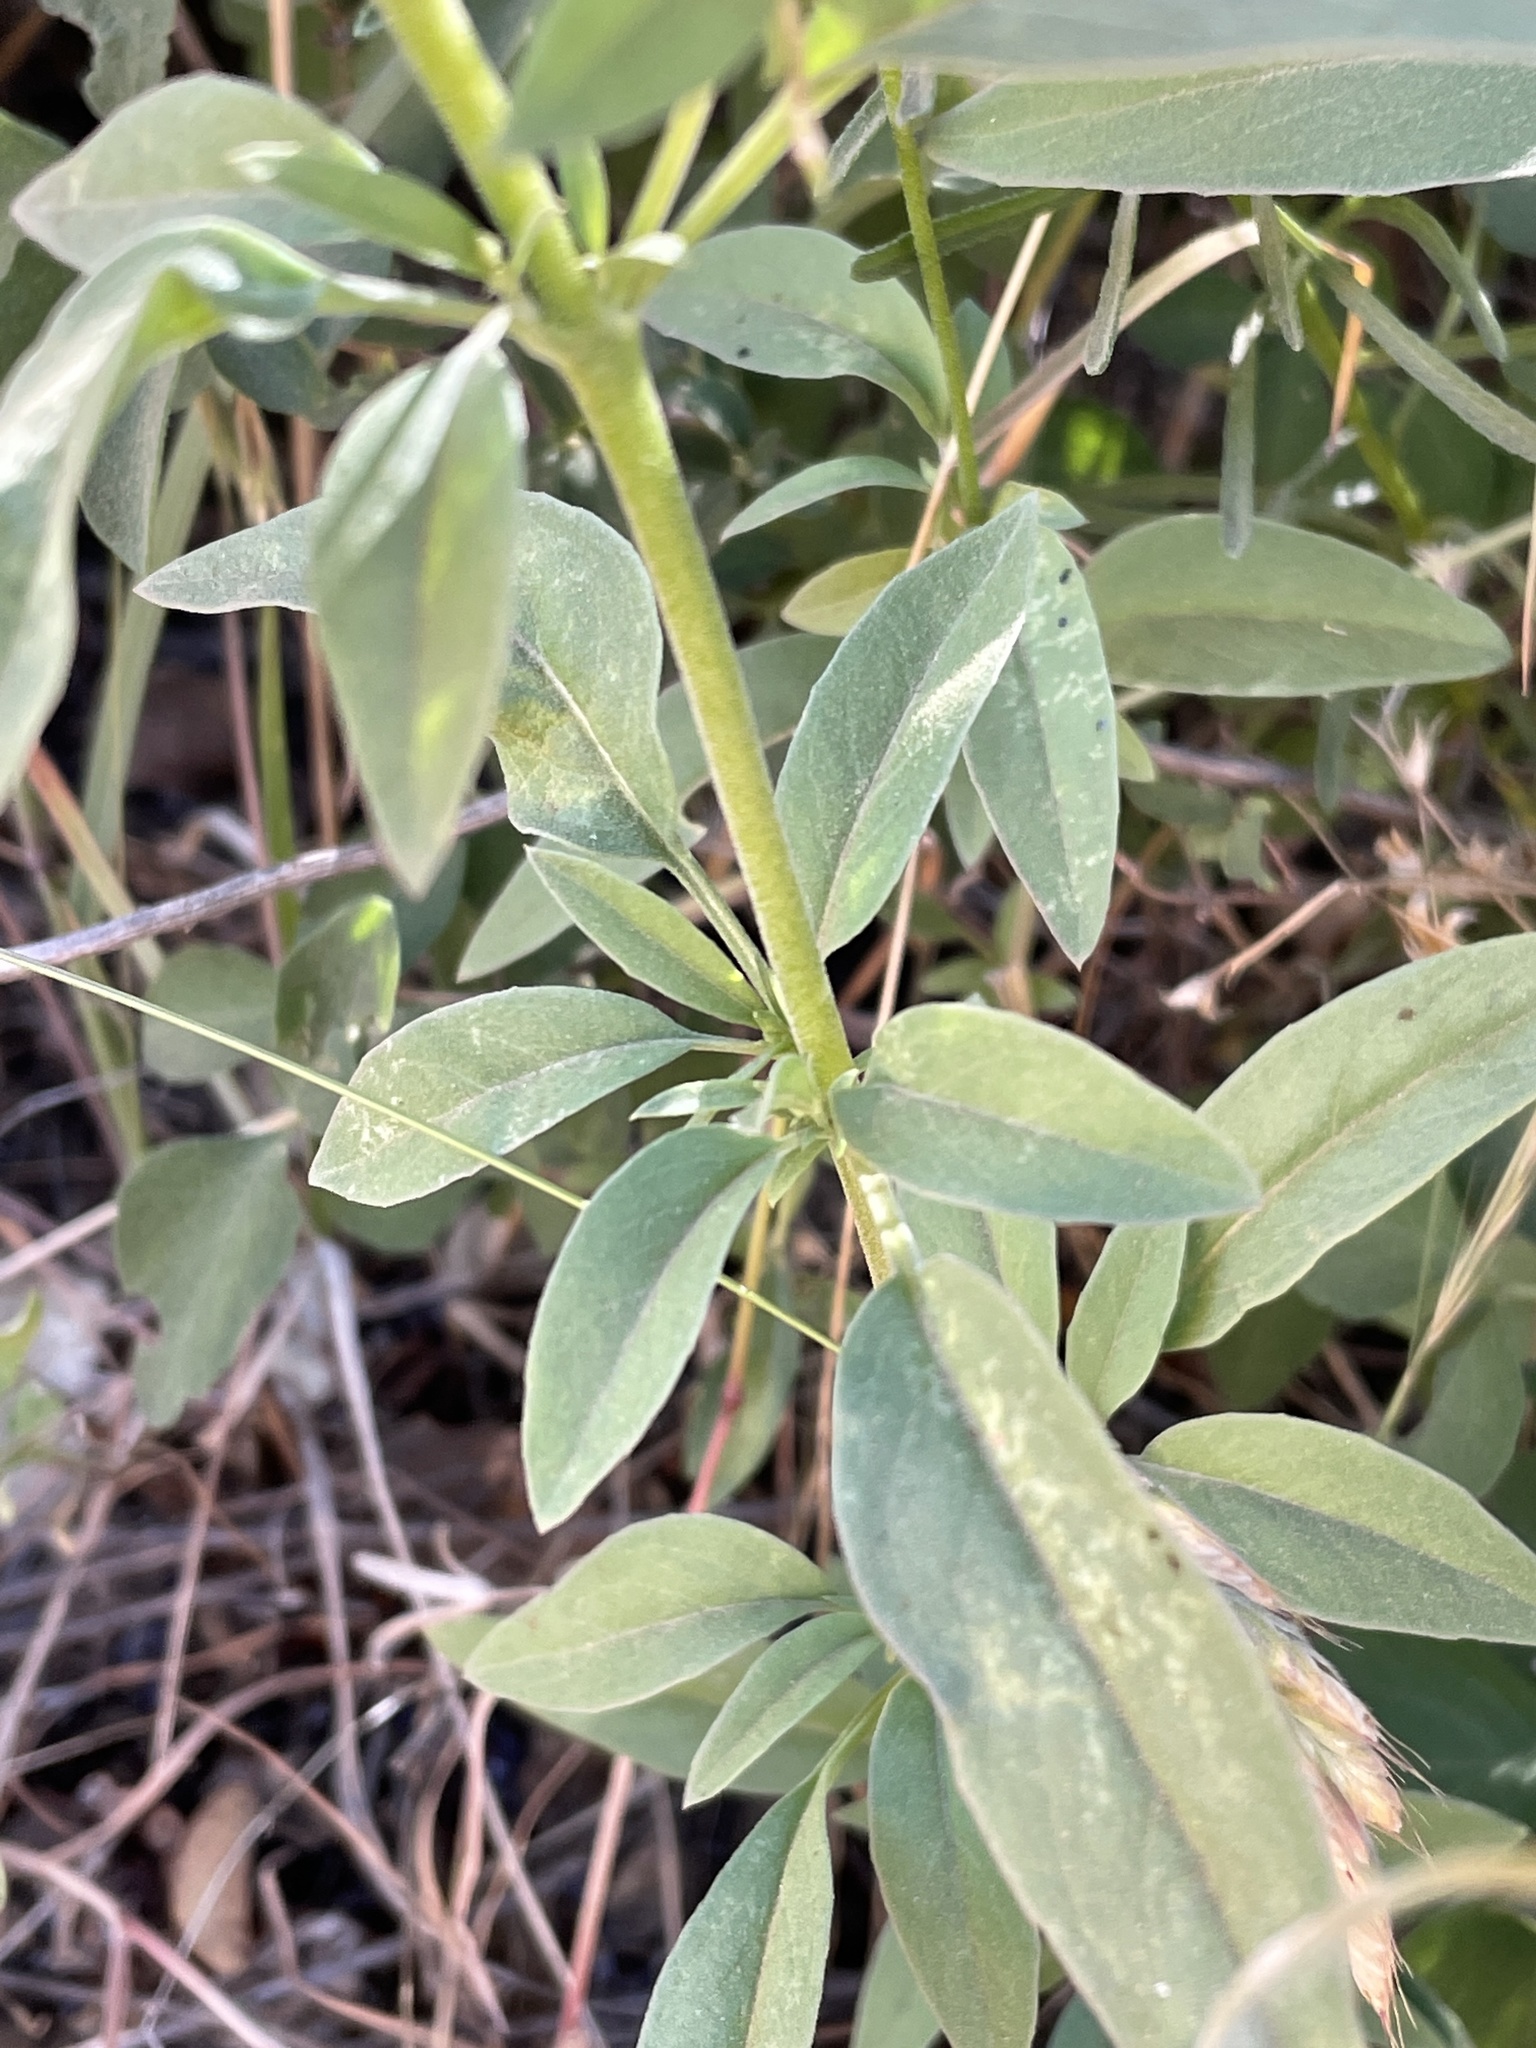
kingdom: Plantae
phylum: Tracheophyta
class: Magnoliopsida
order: Myrtales
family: Onagraceae
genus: Clarkia
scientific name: Clarkia rhomboidea
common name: Broadleaf clarkia
